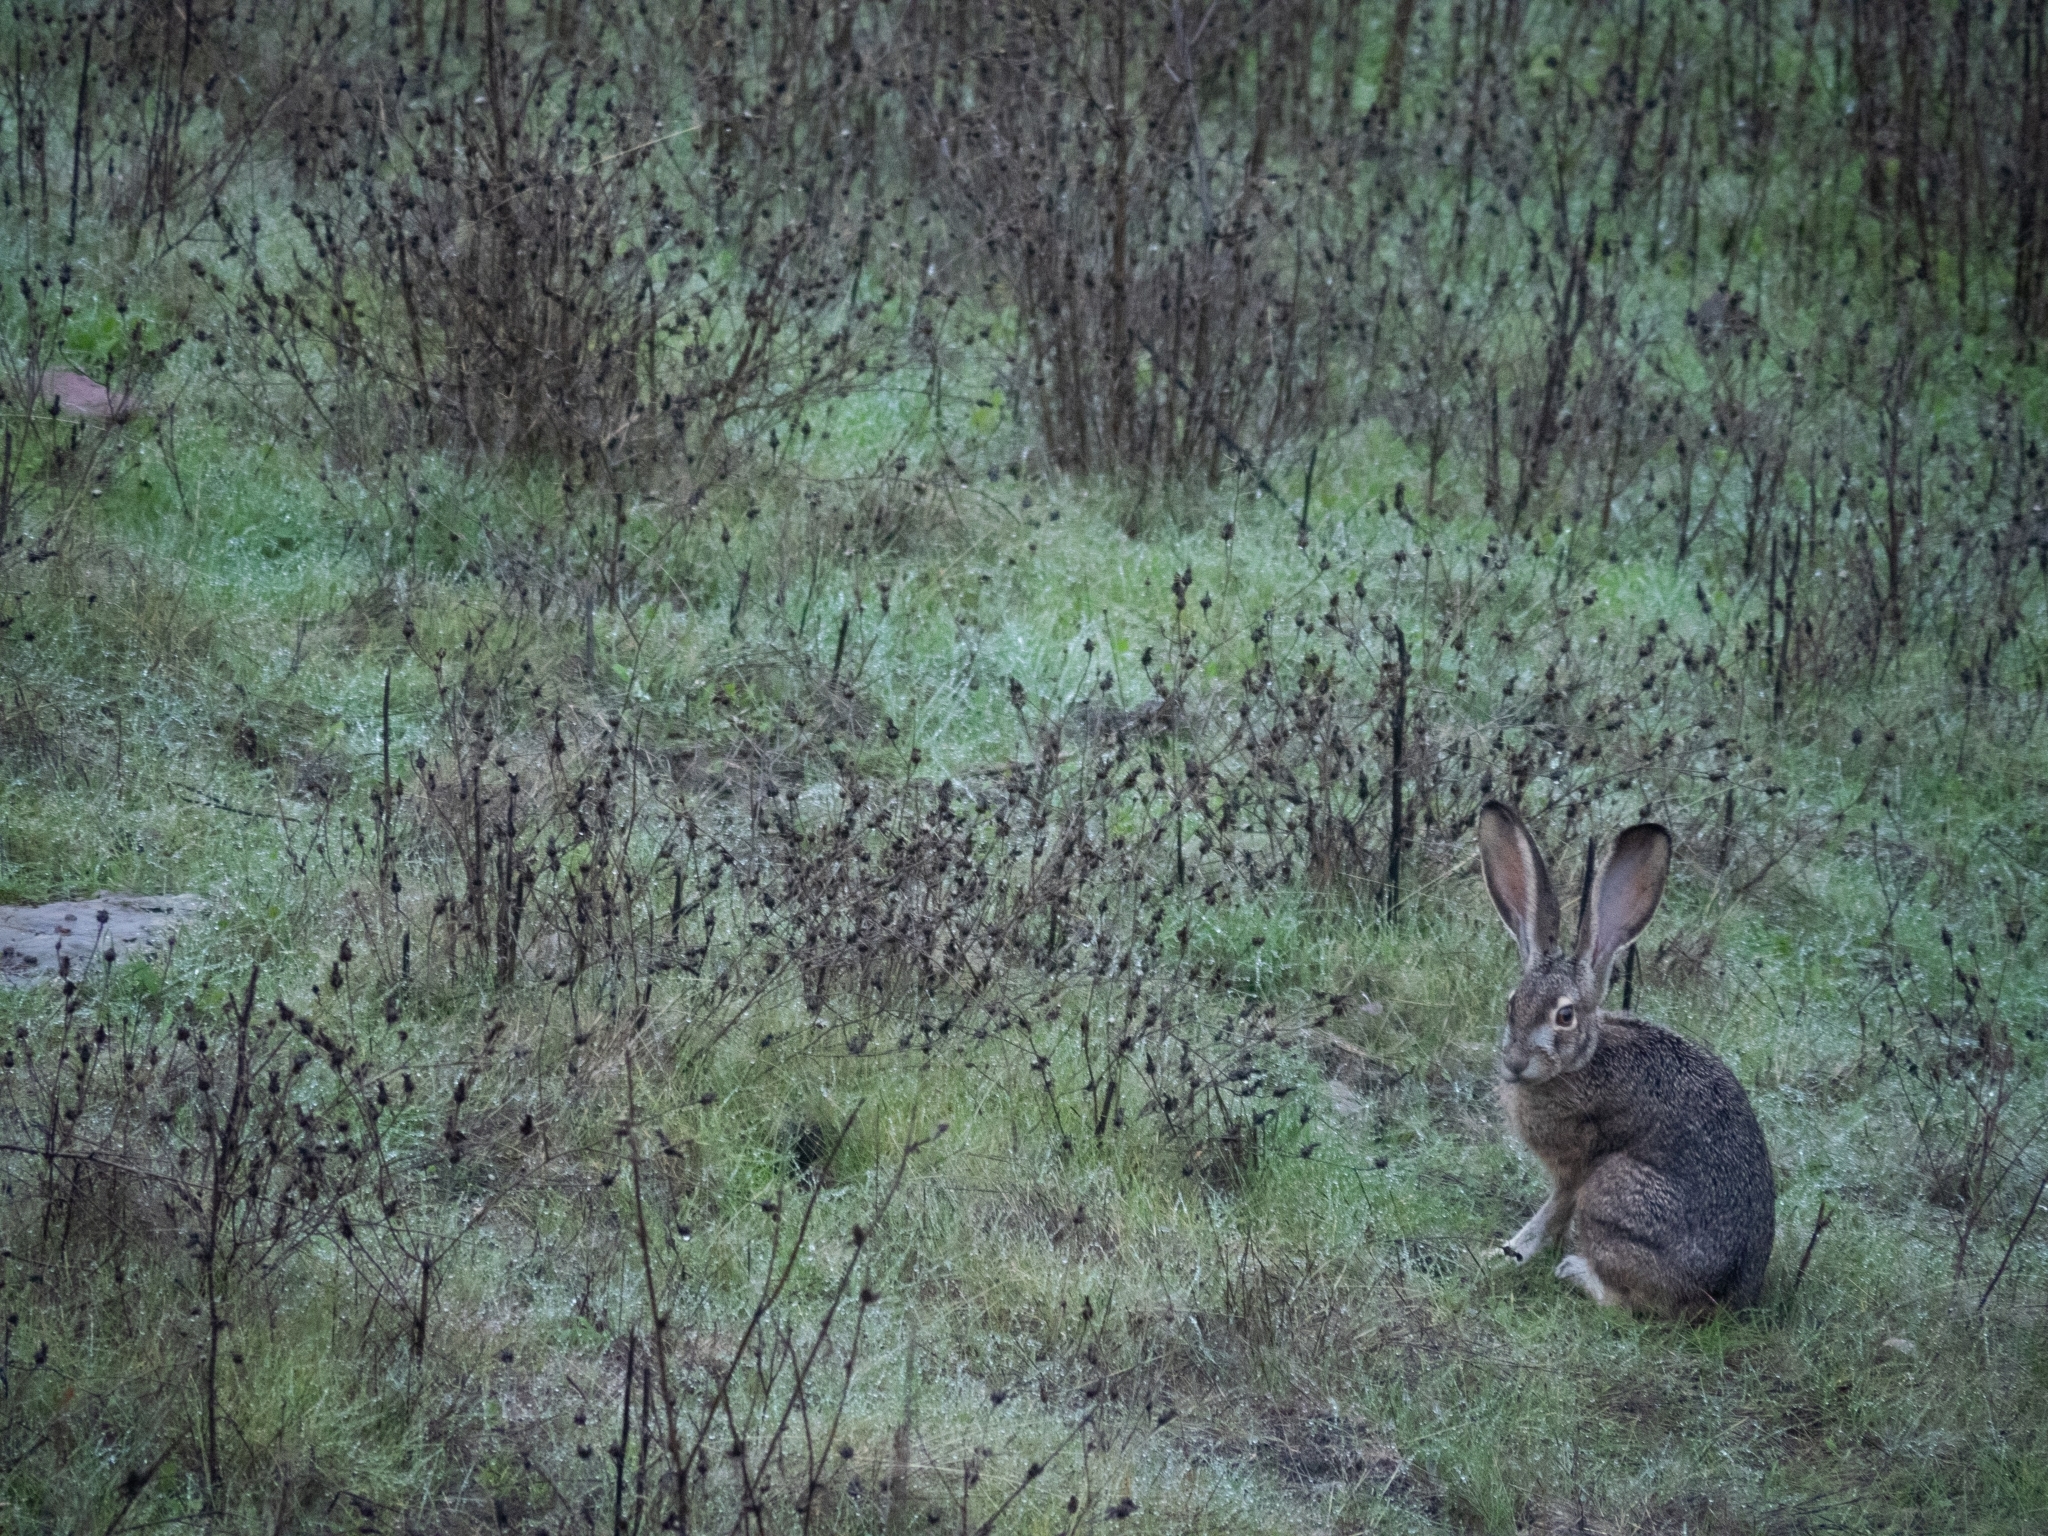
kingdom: Animalia
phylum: Chordata
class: Mammalia
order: Lagomorpha
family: Leporidae
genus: Lepus
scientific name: Lepus californicus
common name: Black-tailed jackrabbit
